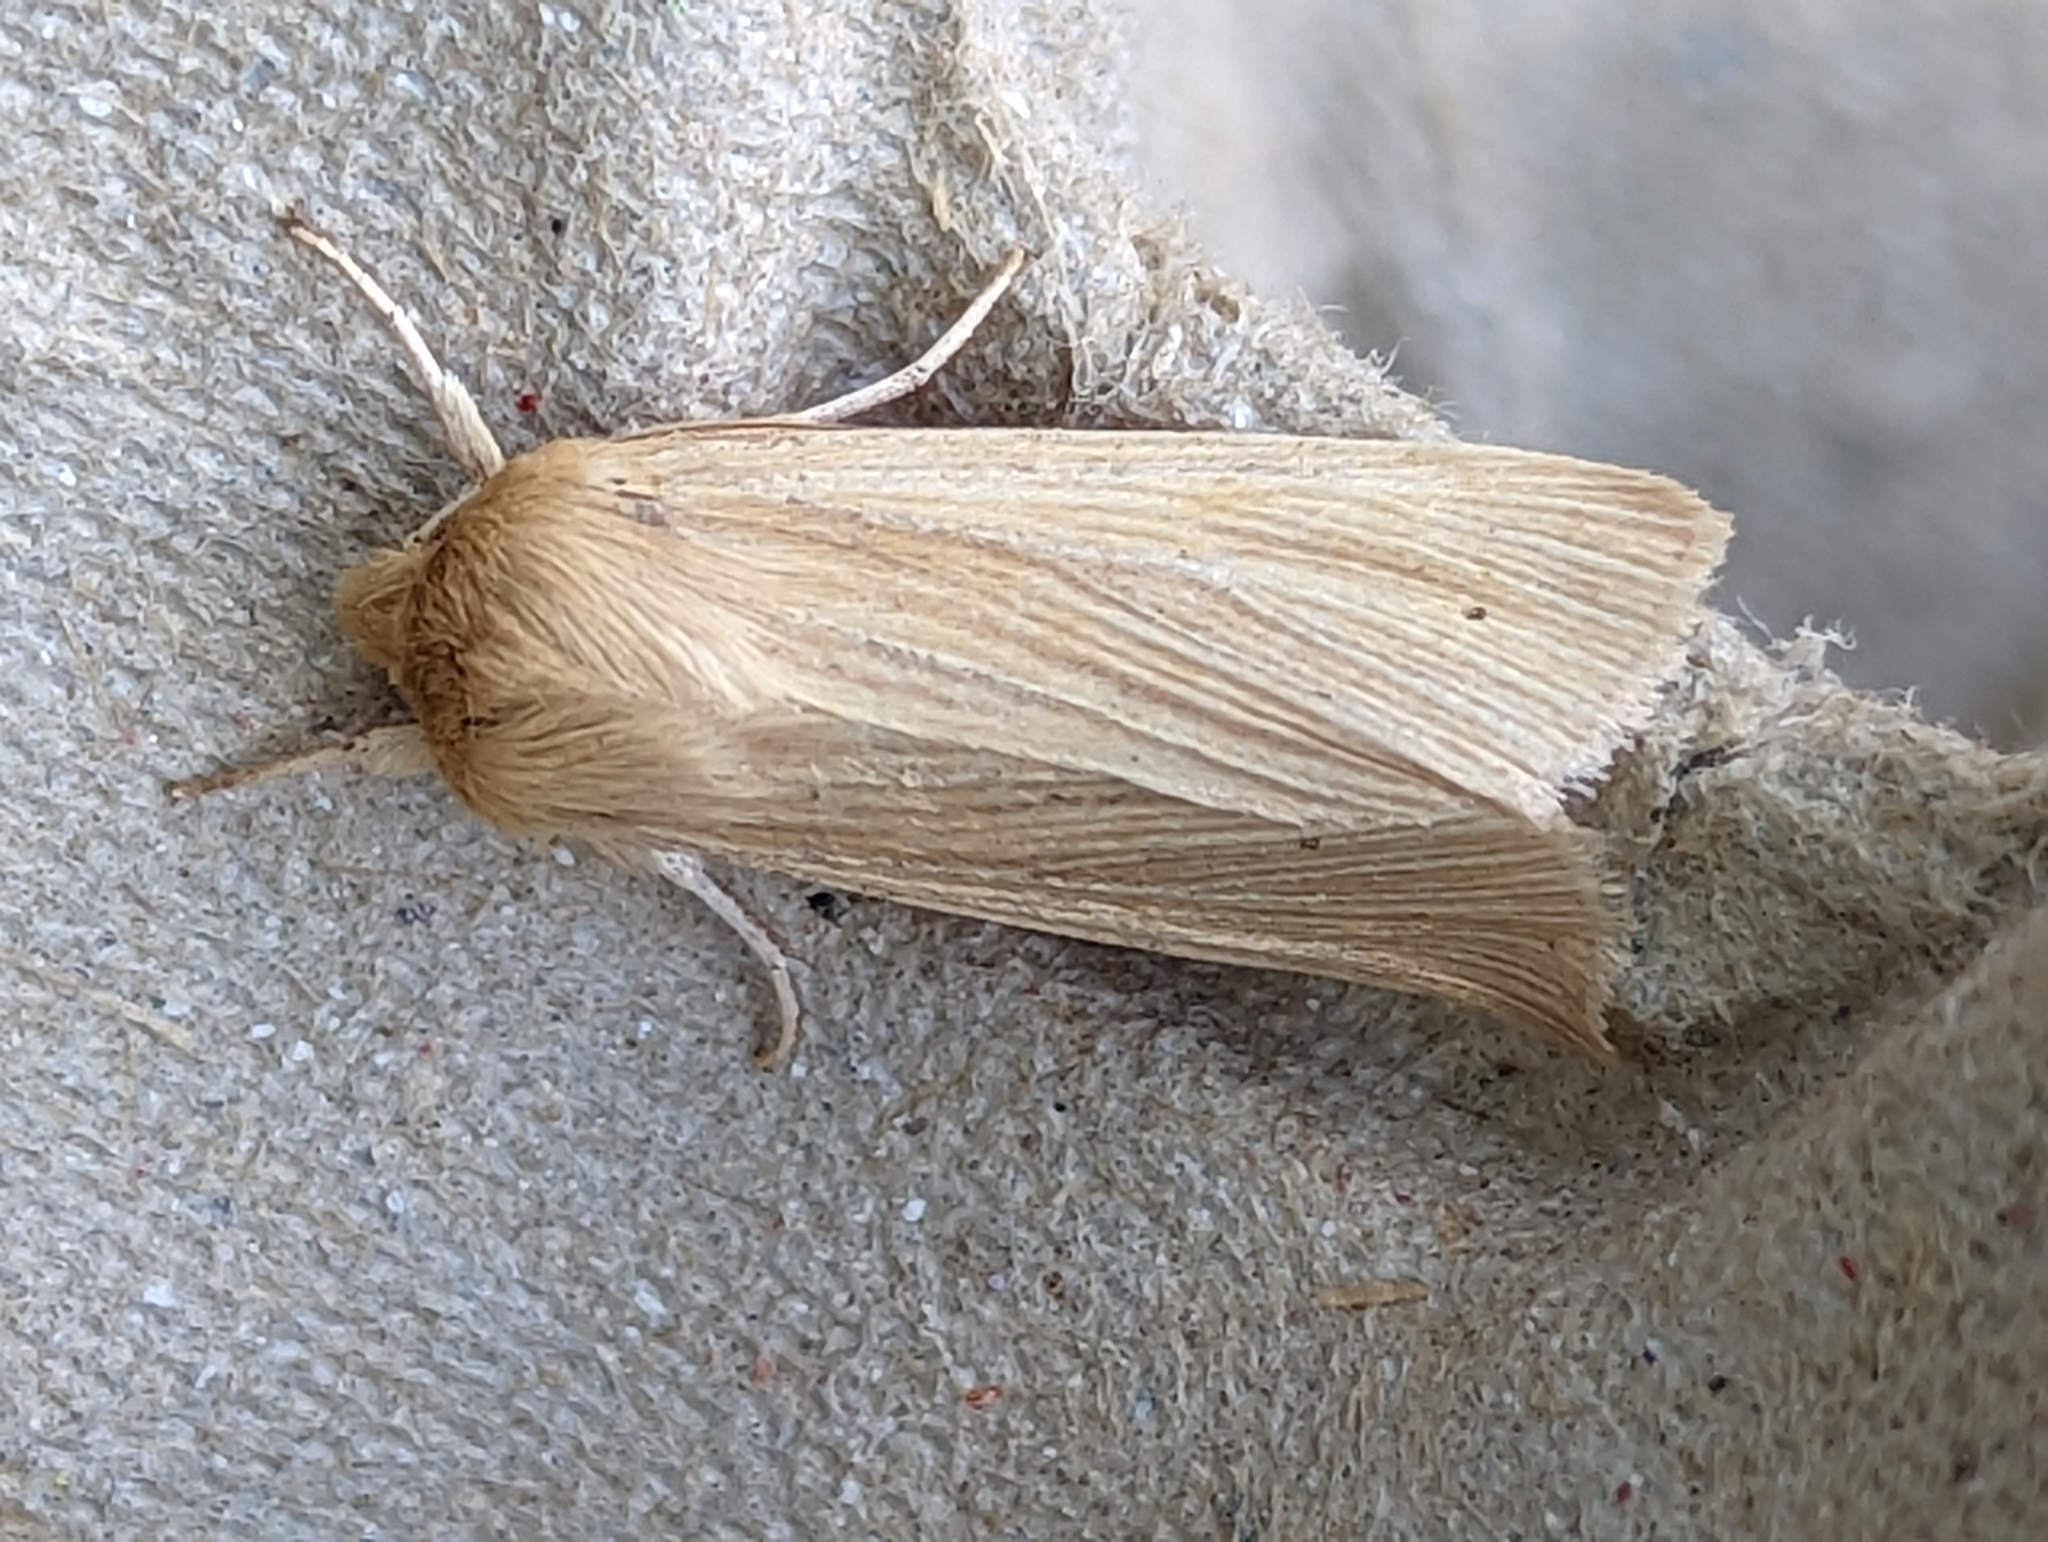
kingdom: Animalia
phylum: Arthropoda
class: Insecta
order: Lepidoptera
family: Noctuidae
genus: Mythimna
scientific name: Mythimna pallens
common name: Common wainscot
